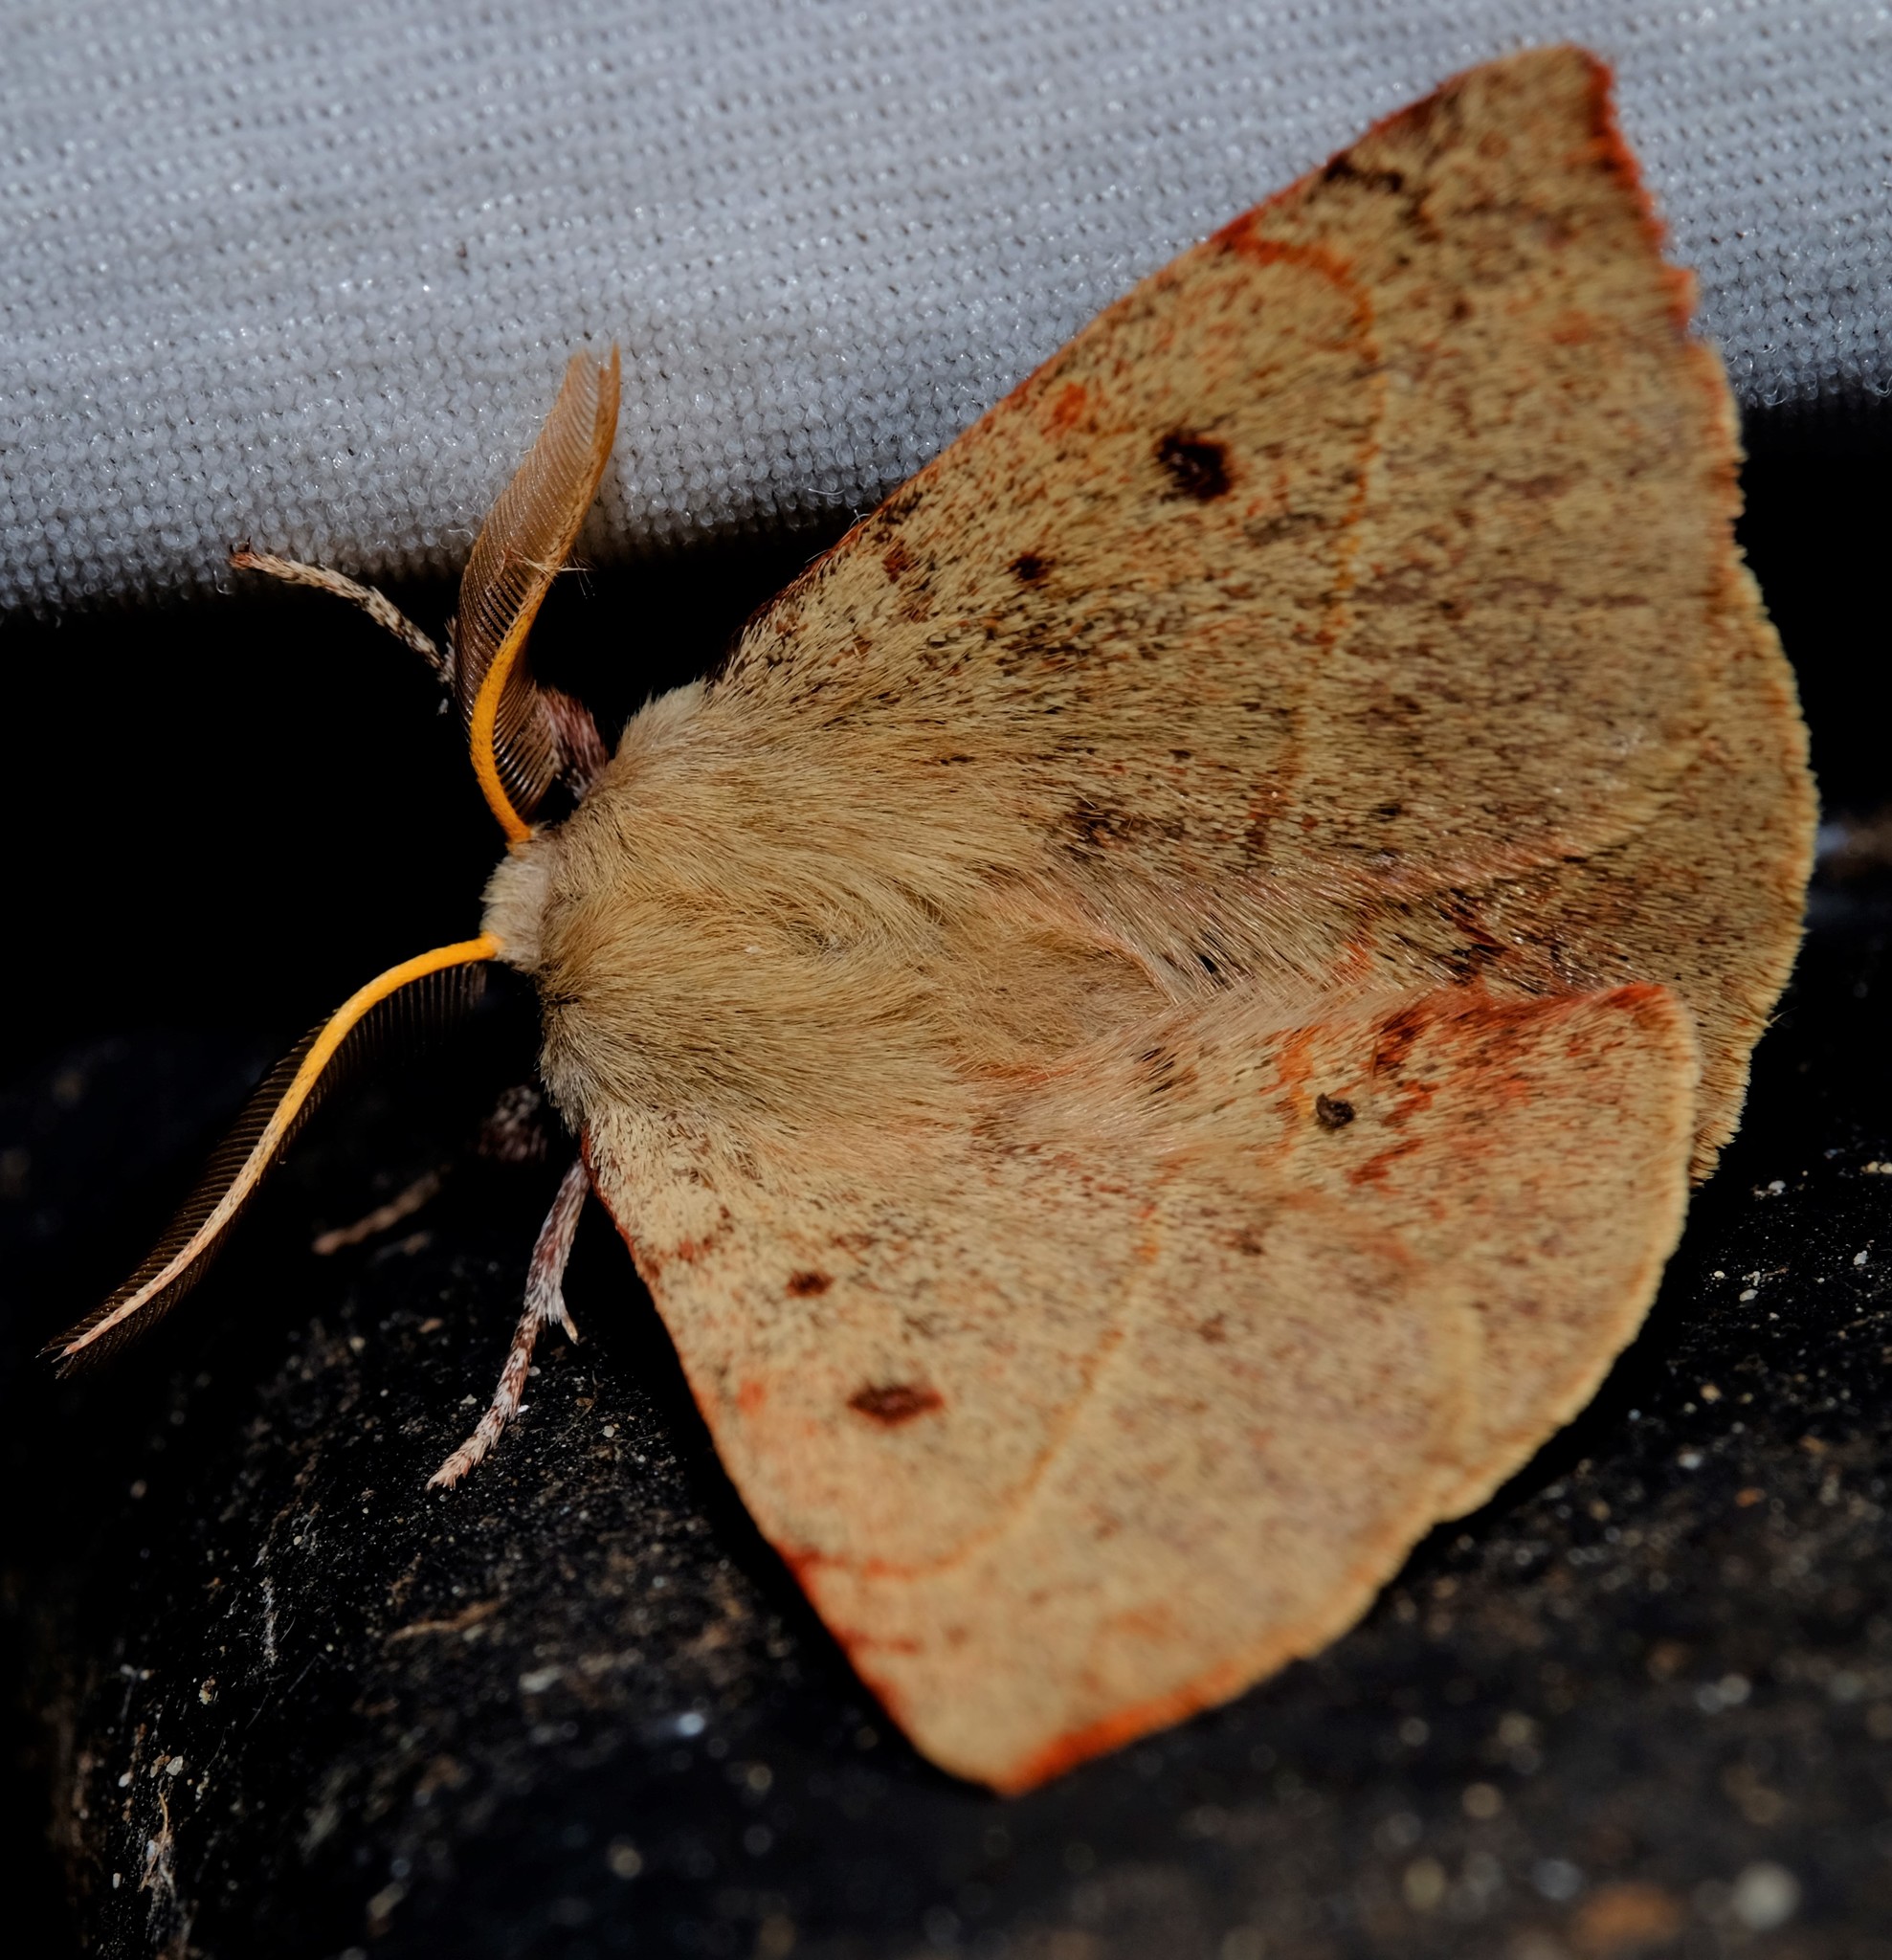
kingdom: Animalia
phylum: Arthropoda
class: Insecta
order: Lepidoptera
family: Anthelidae
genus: Anthela
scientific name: Anthela acuta
